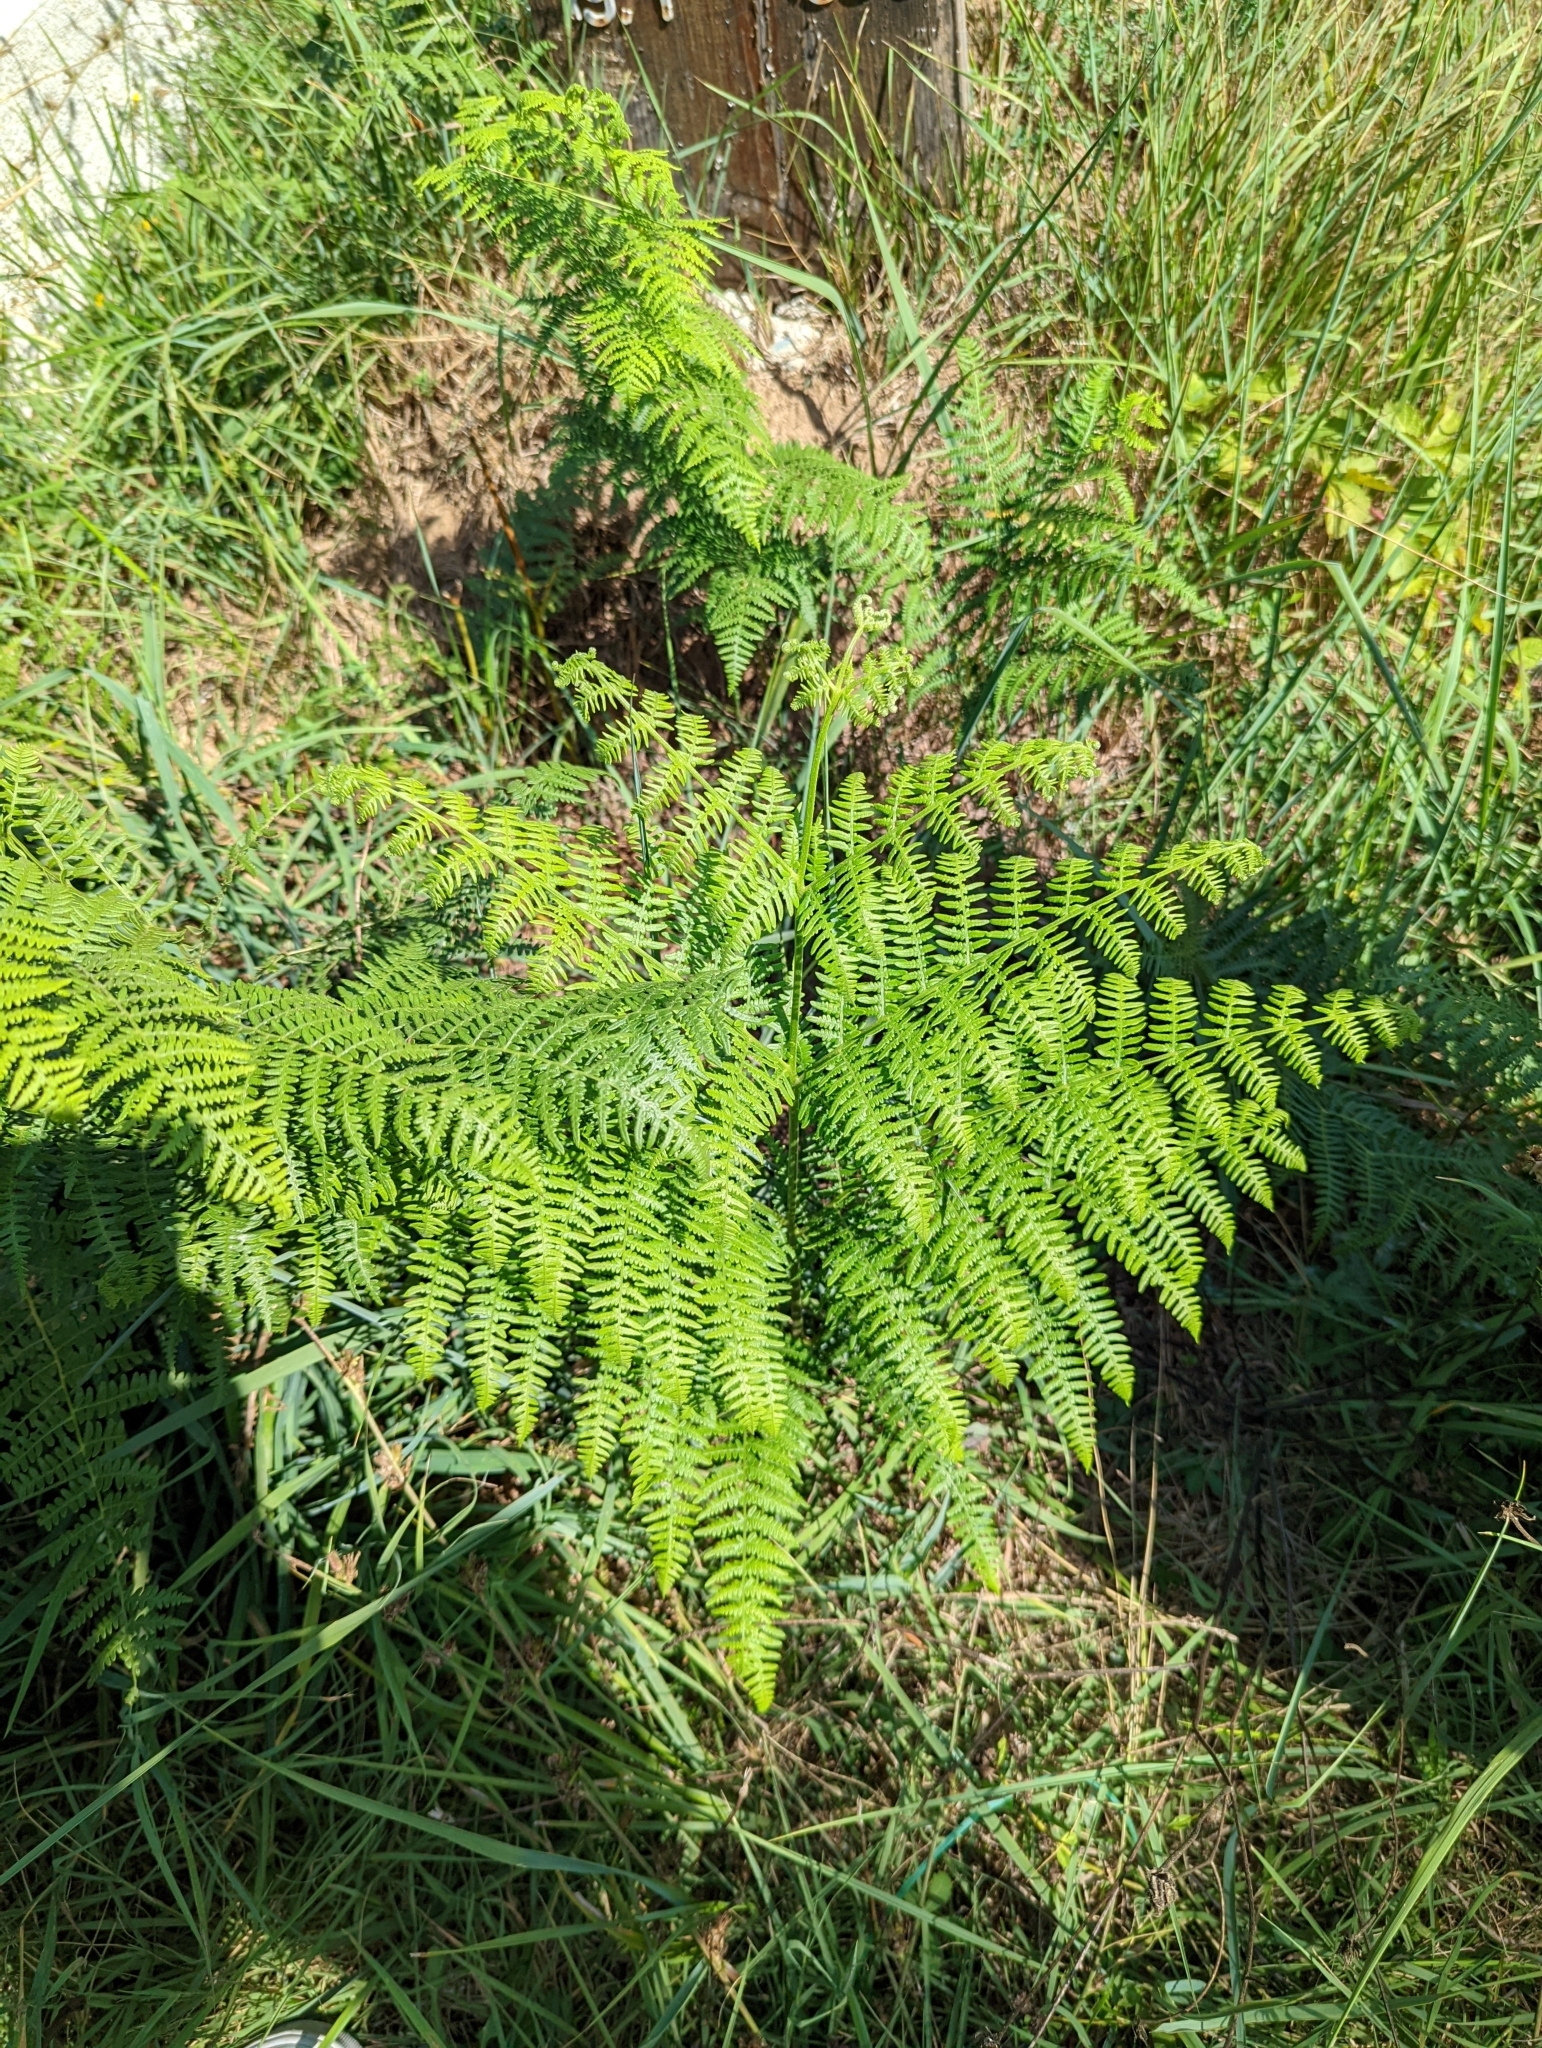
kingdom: Plantae
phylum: Tracheophyta
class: Polypodiopsida
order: Polypodiales
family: Dennstaedtiaceae
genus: Pteridium
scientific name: Pteridium aquilinum
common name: Bracken
